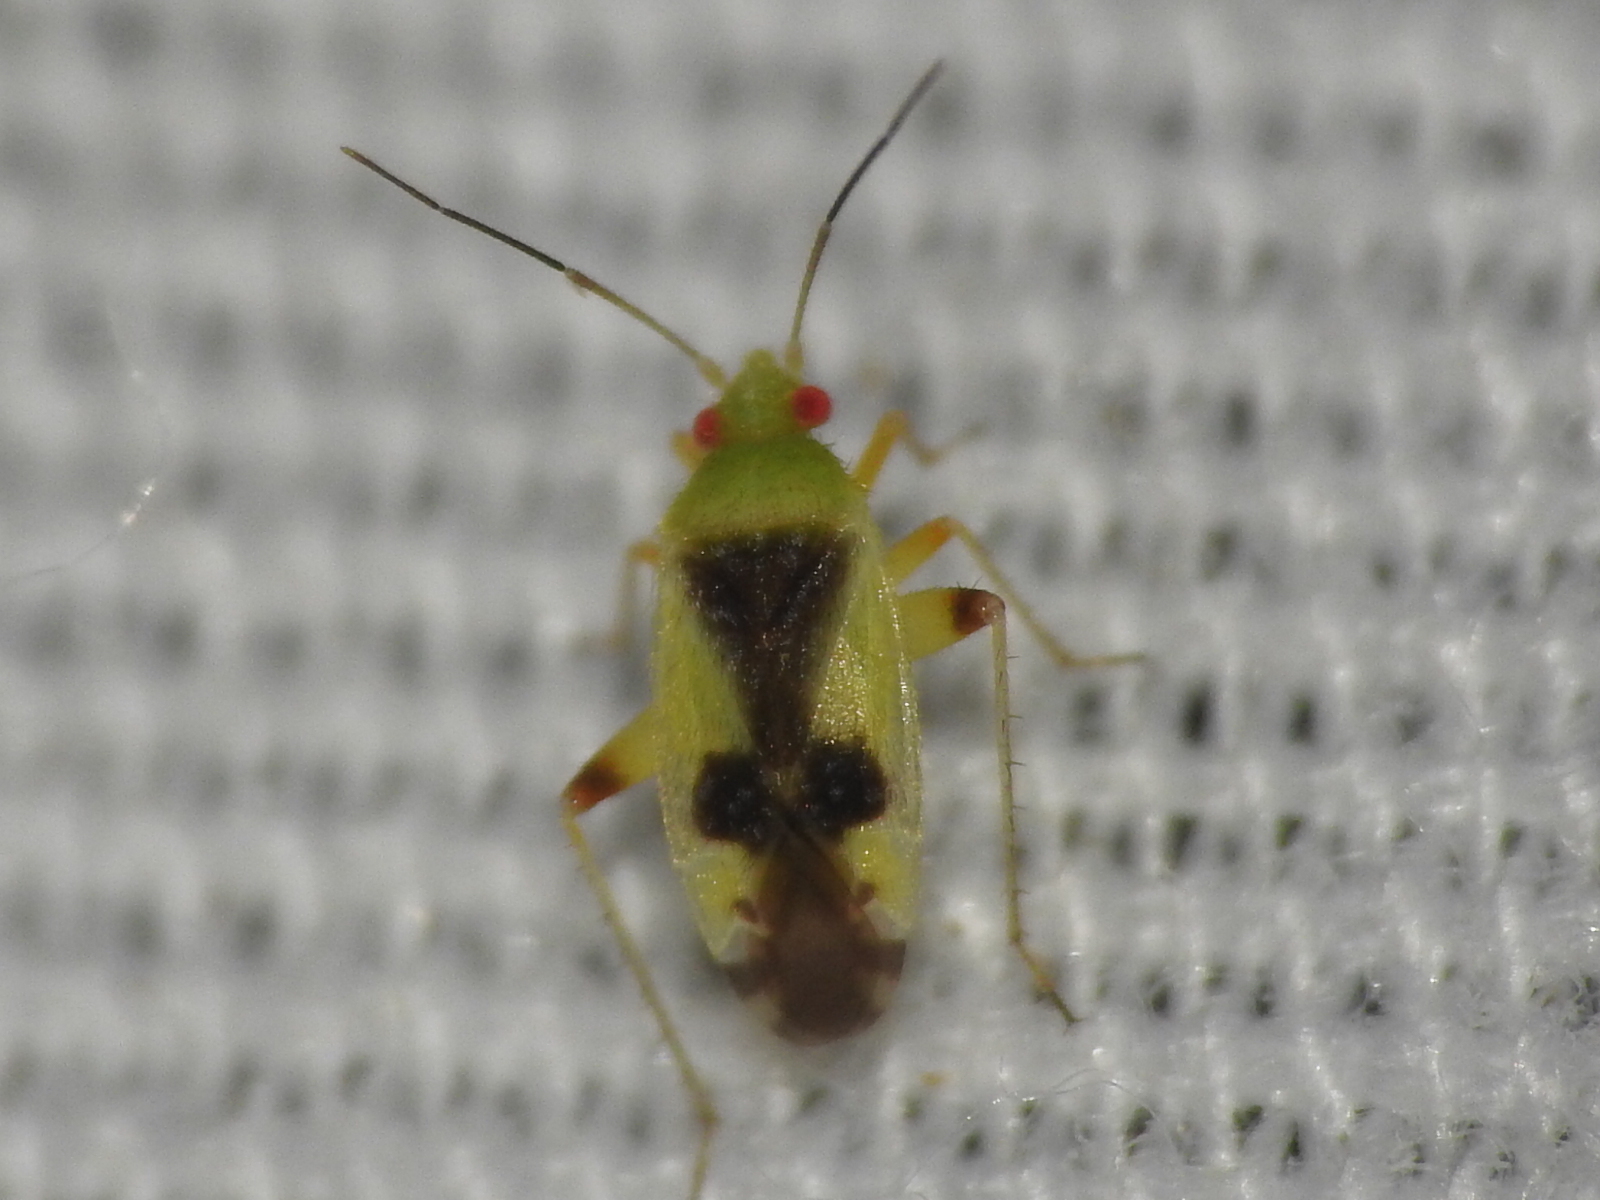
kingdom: Animalia
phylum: Arthropoda
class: Insecta
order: Hemiptera
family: Miridae
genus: Reuteroscopus
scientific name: Reuteroscopus femoralis
